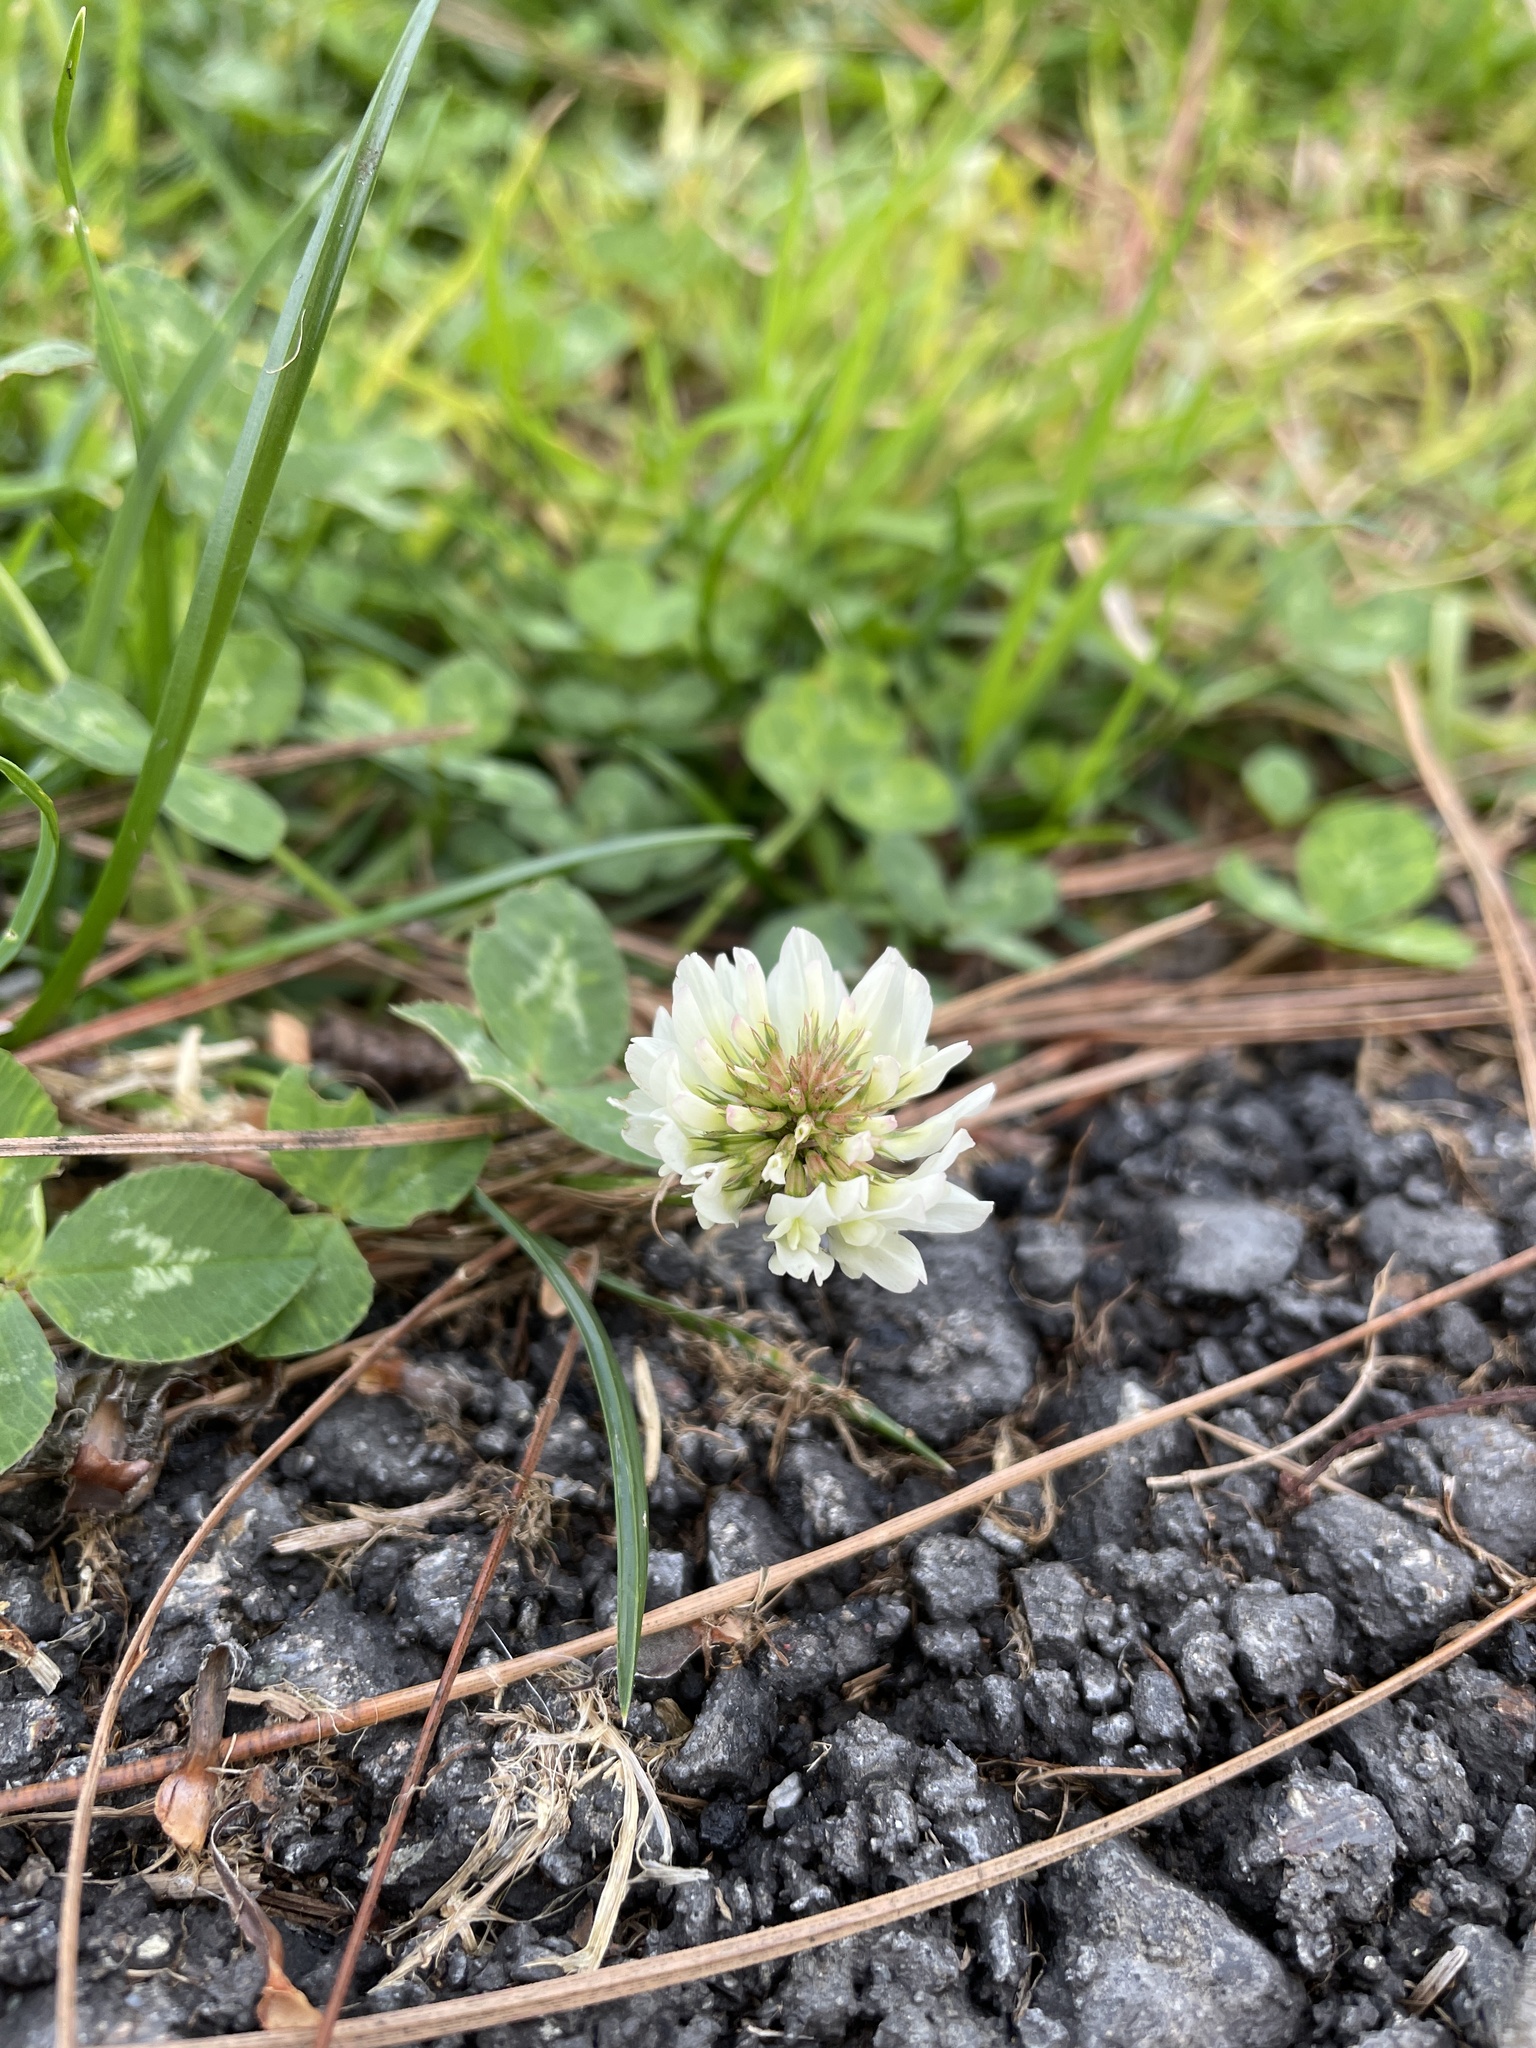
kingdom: Plantae
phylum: Tracheophyta
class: Magnoliopsida
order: Fabales
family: Fabaceae
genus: Trifolium
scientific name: Trifolium repens
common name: White clover
